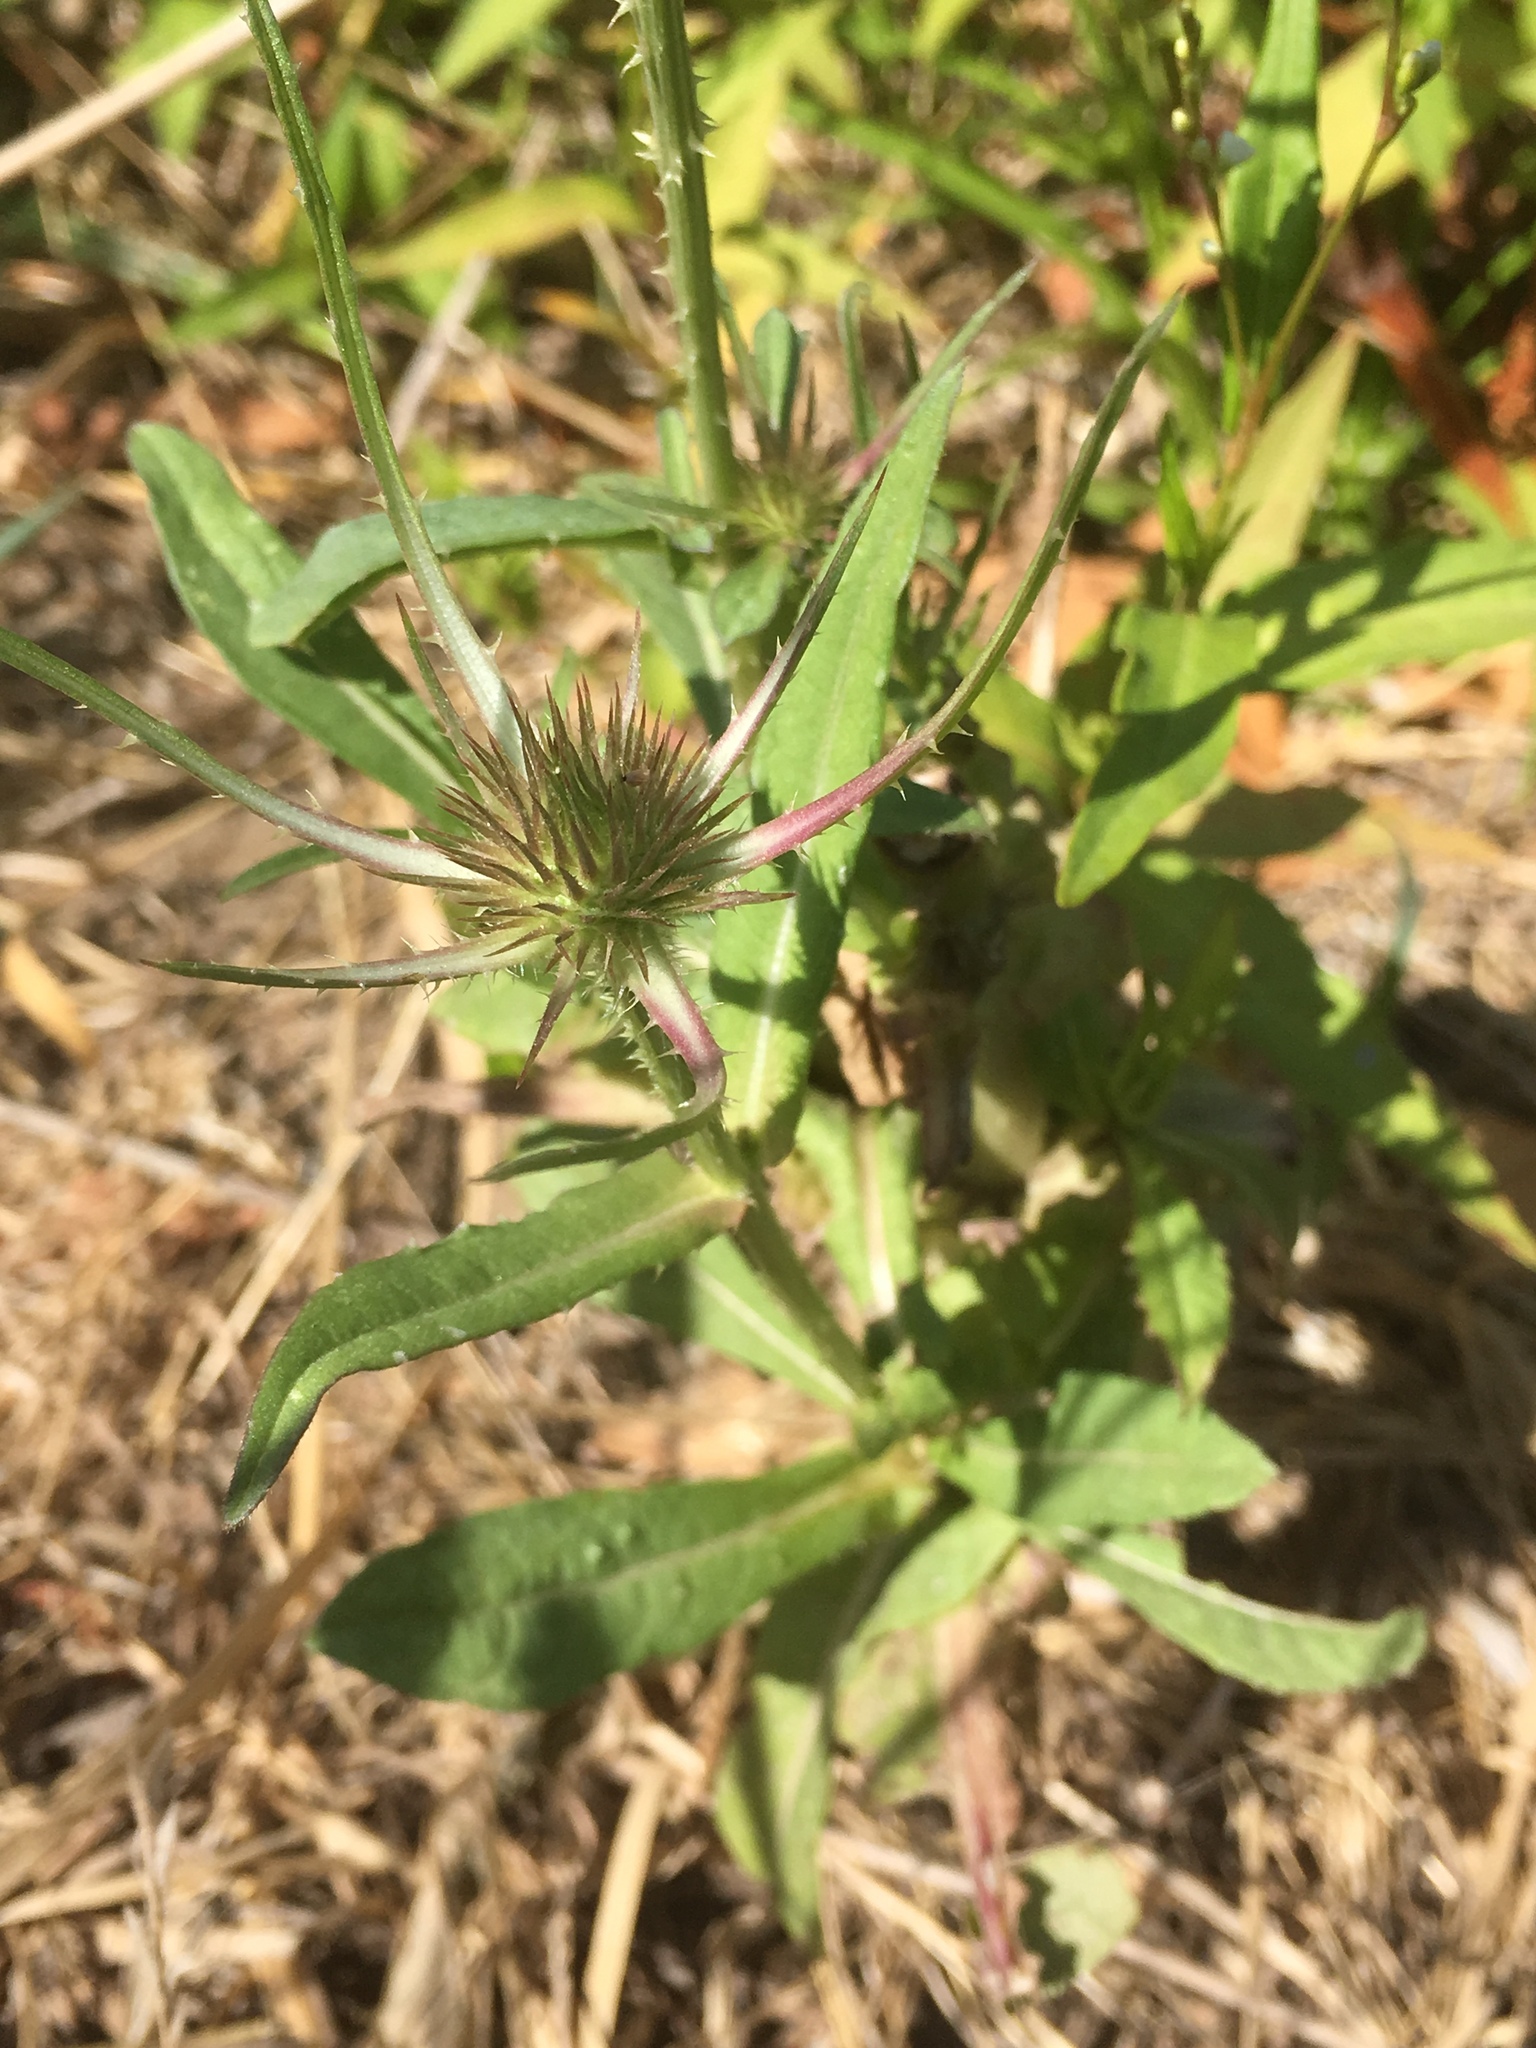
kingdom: Plantae
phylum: Tracheophyta
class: Magnoliopsida
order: Dipsacales
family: Caprifoliaceae
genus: Dipsacus
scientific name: Dipsacus fullonum
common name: Teasel
